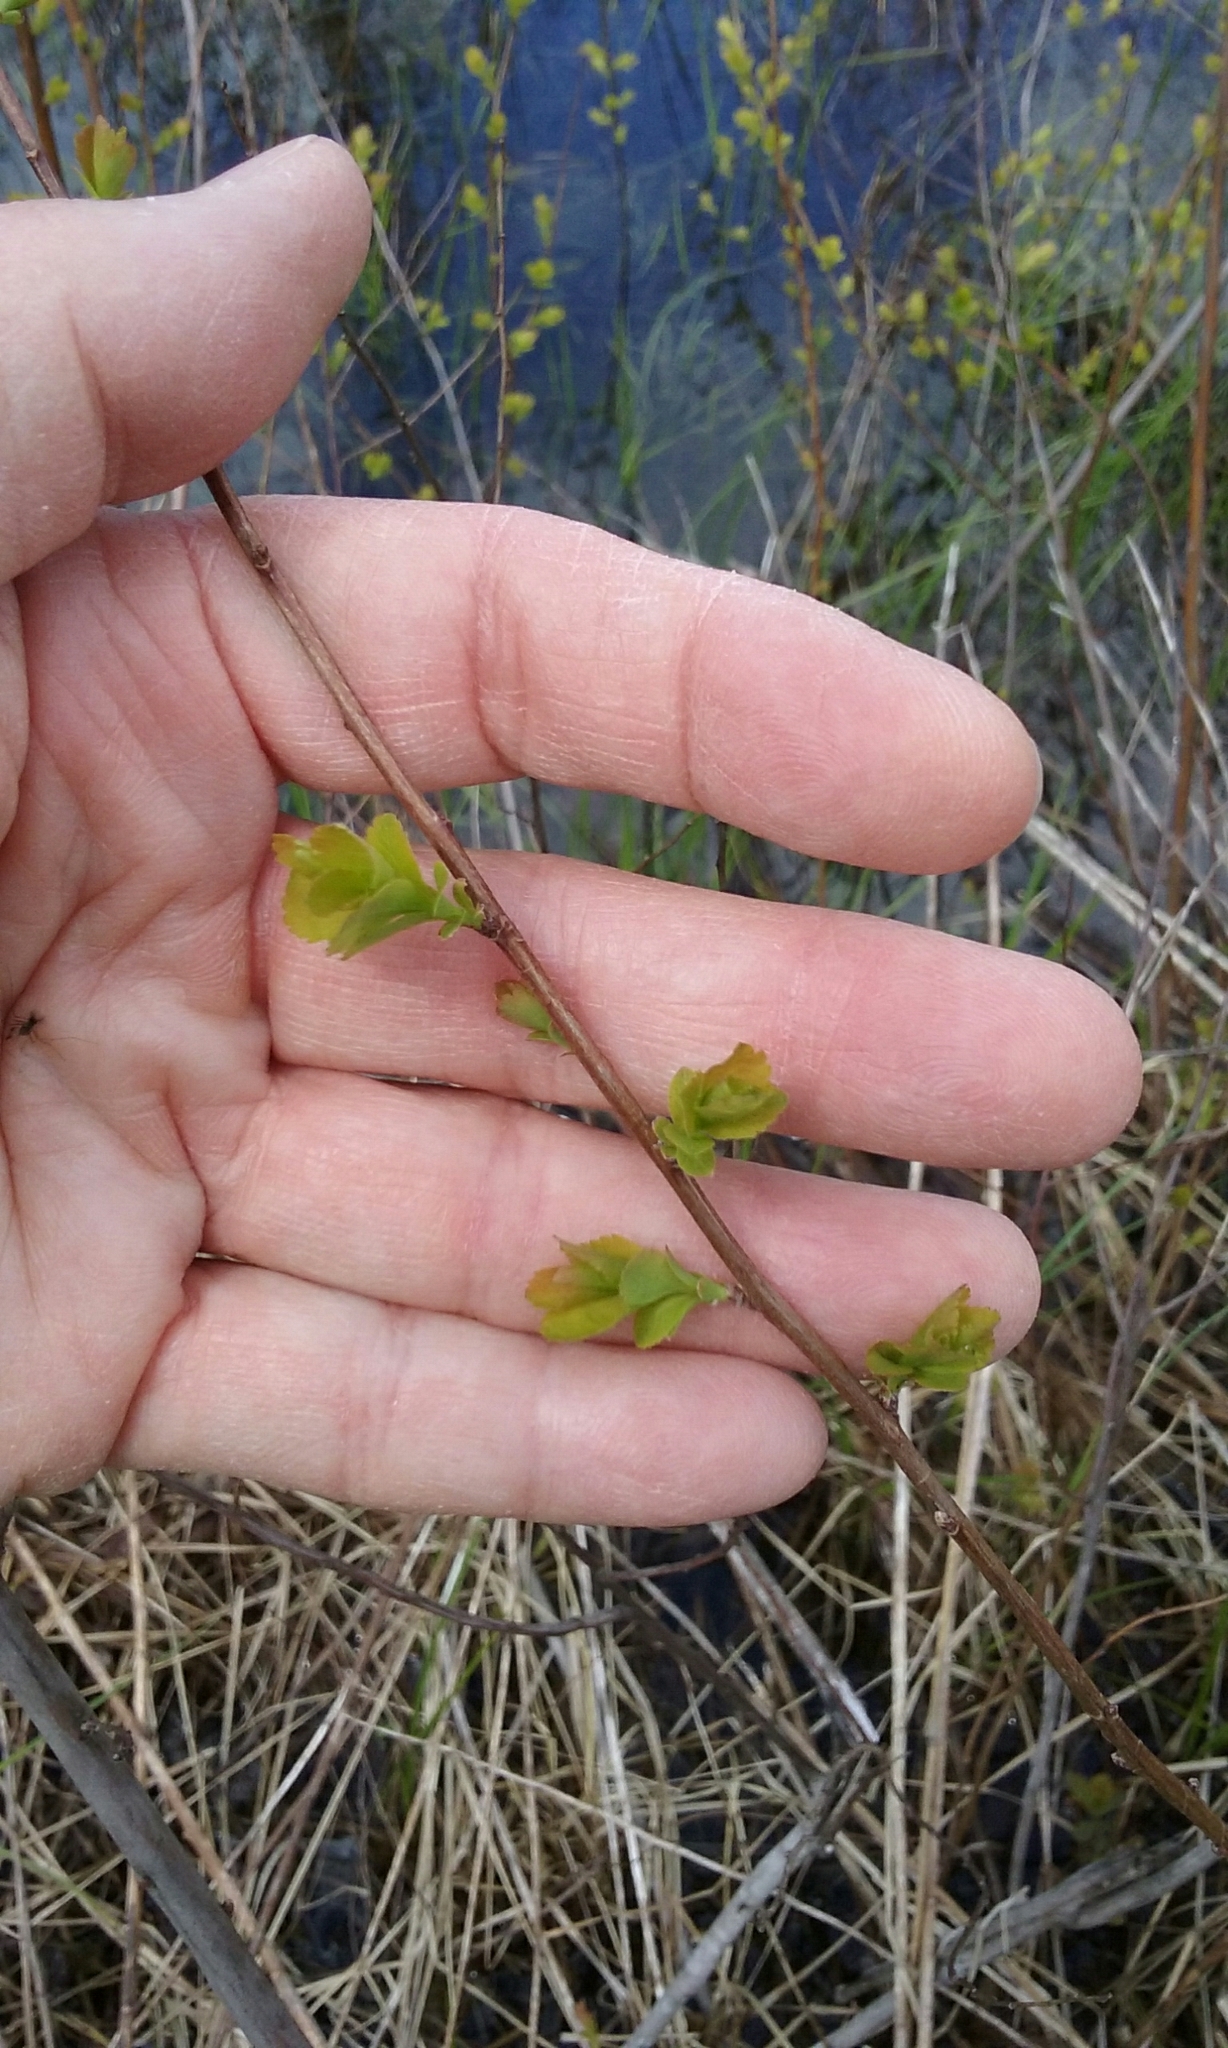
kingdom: Plantae
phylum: Tracheophyta
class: Magnoliopsida
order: Rosales
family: Rosaceae
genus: Spiraea
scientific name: Spiraea alba
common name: Pale bridewort
